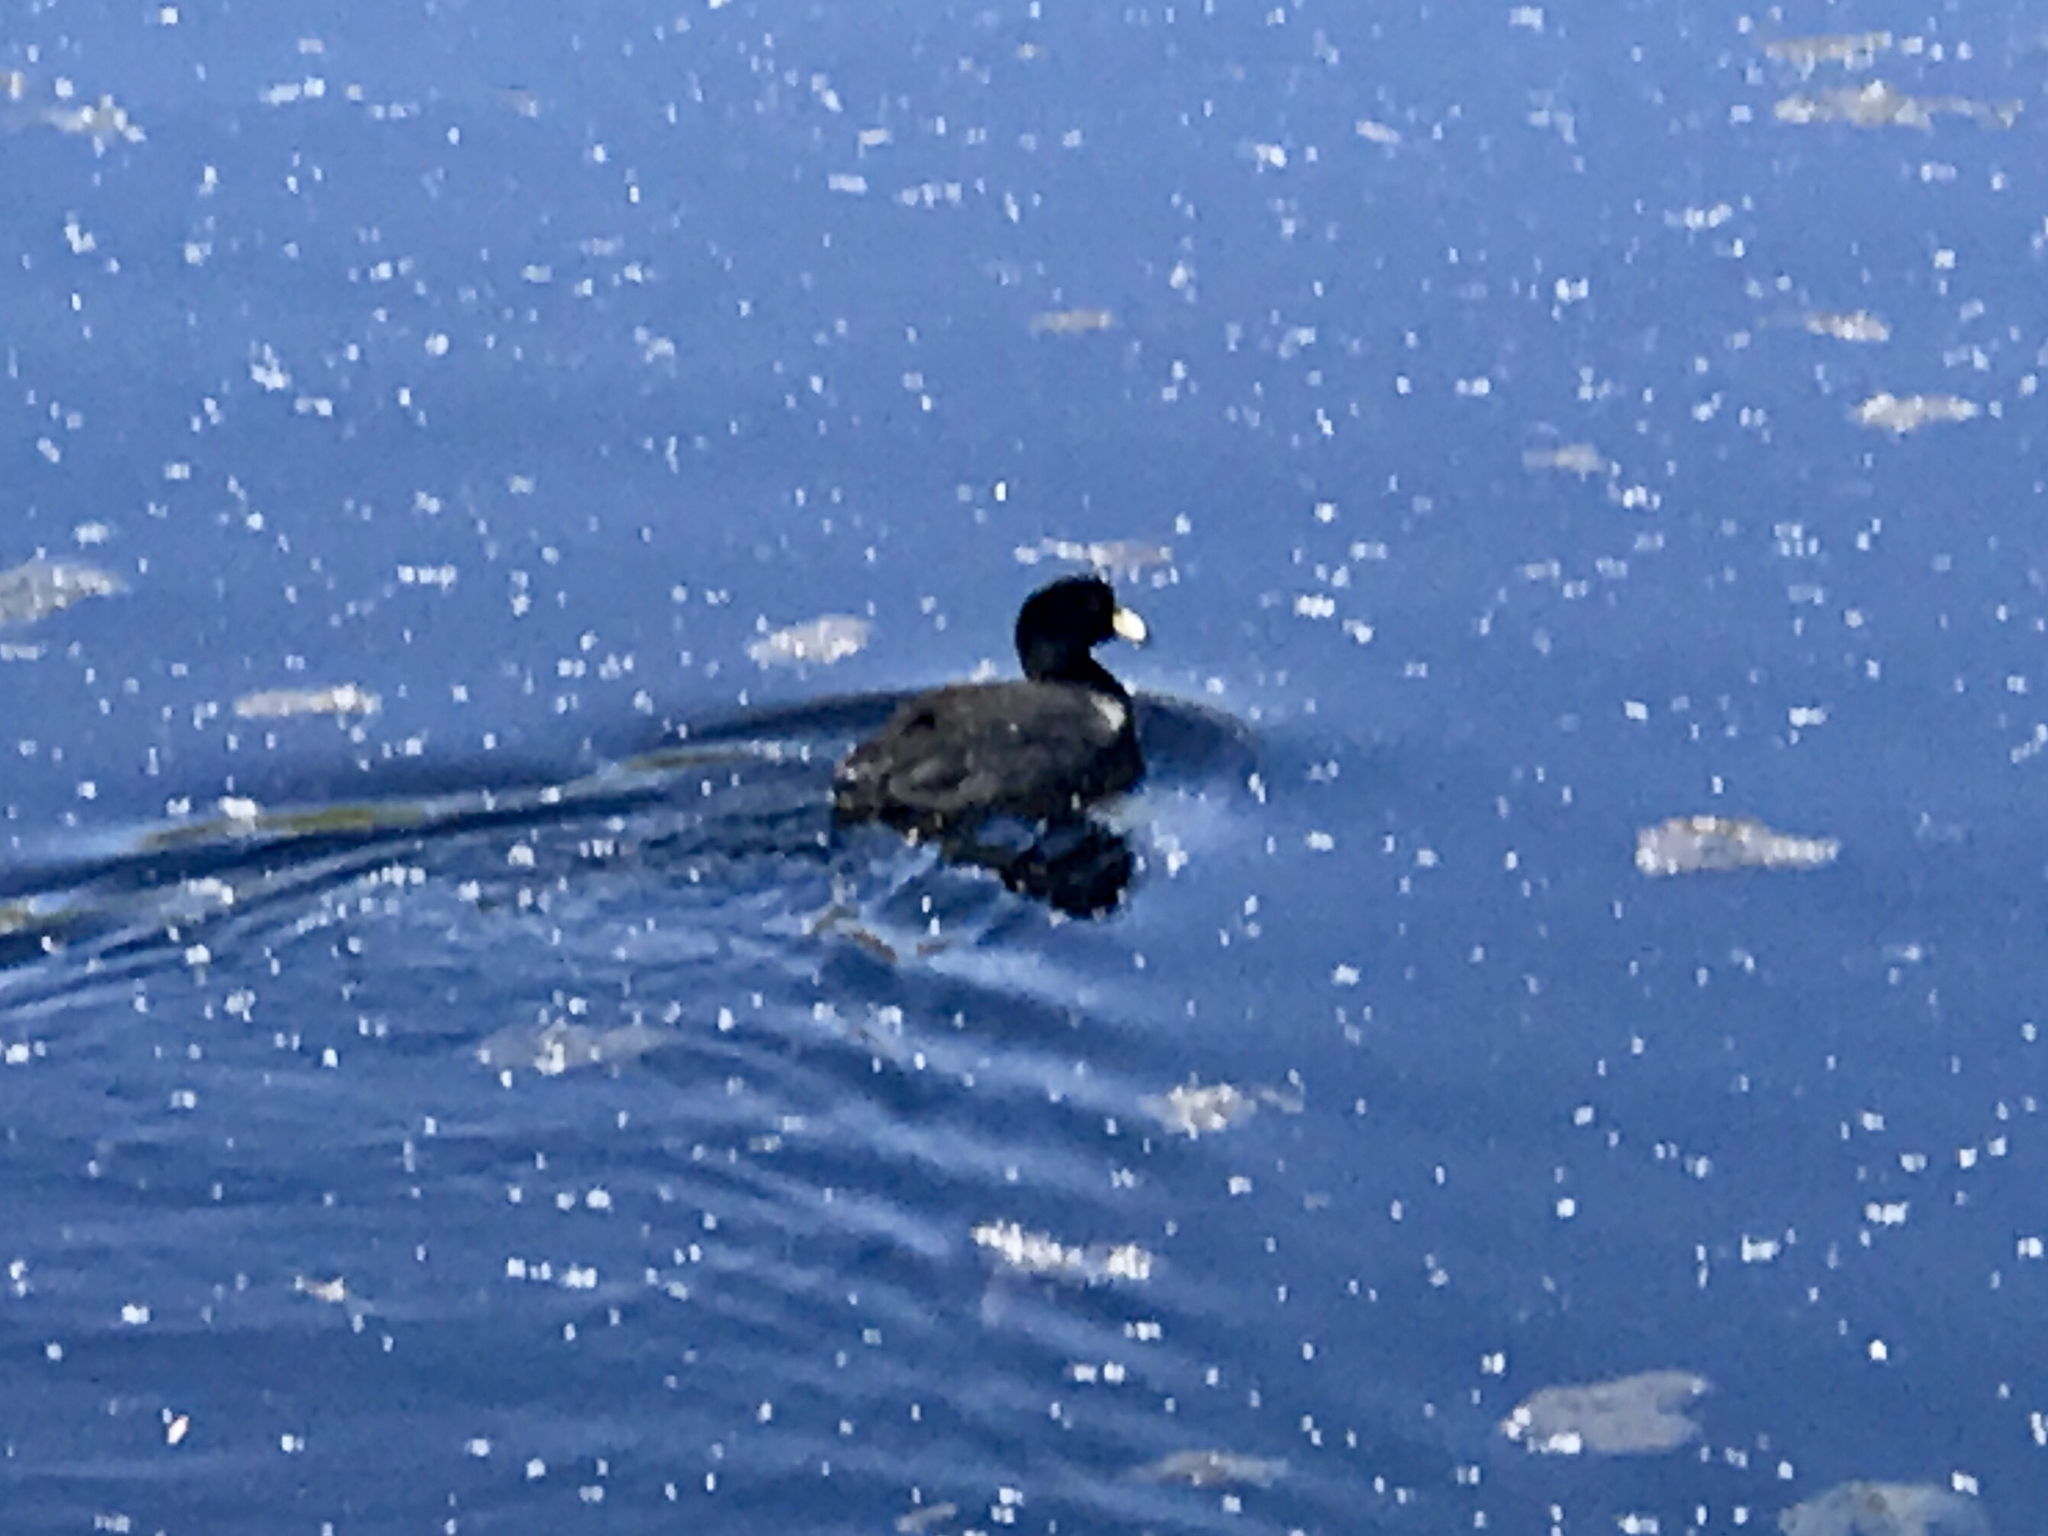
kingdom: Animalia
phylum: Chordata
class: Aves
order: Gruiformes
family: Rallidae
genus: Fulica
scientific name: Fulica americana
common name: American coot
